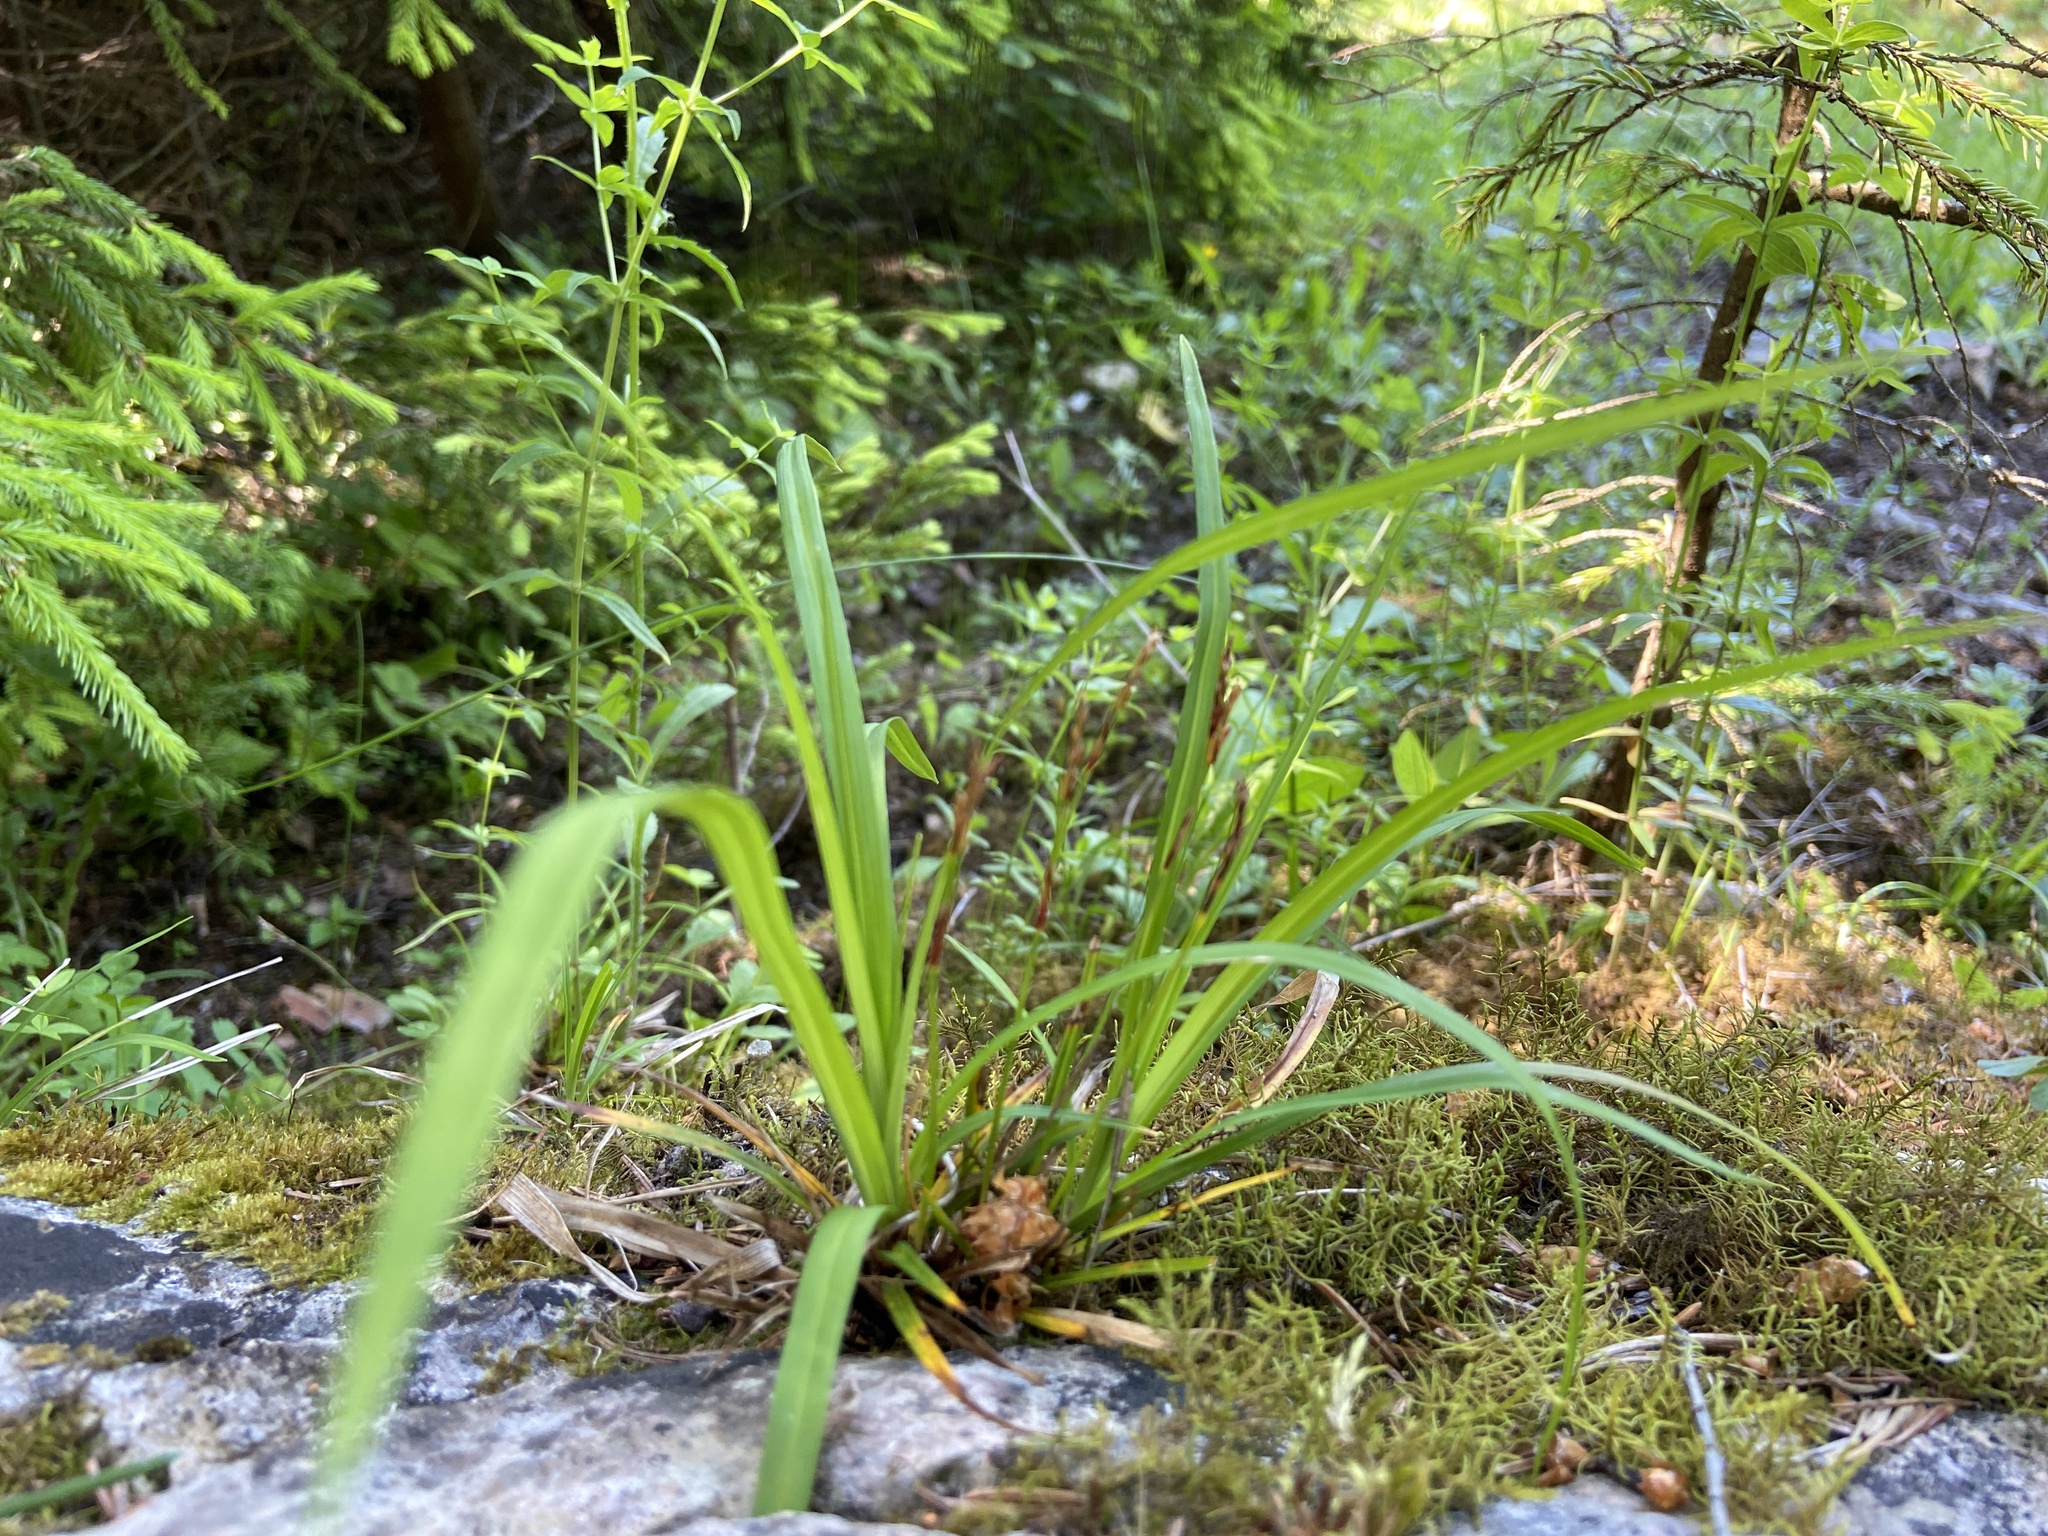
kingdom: Plantae
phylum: Tracheophyta
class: Liliopsida
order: Poales
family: Cyperaceae
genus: Carex
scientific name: Carex digitata
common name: Fingered sedge
